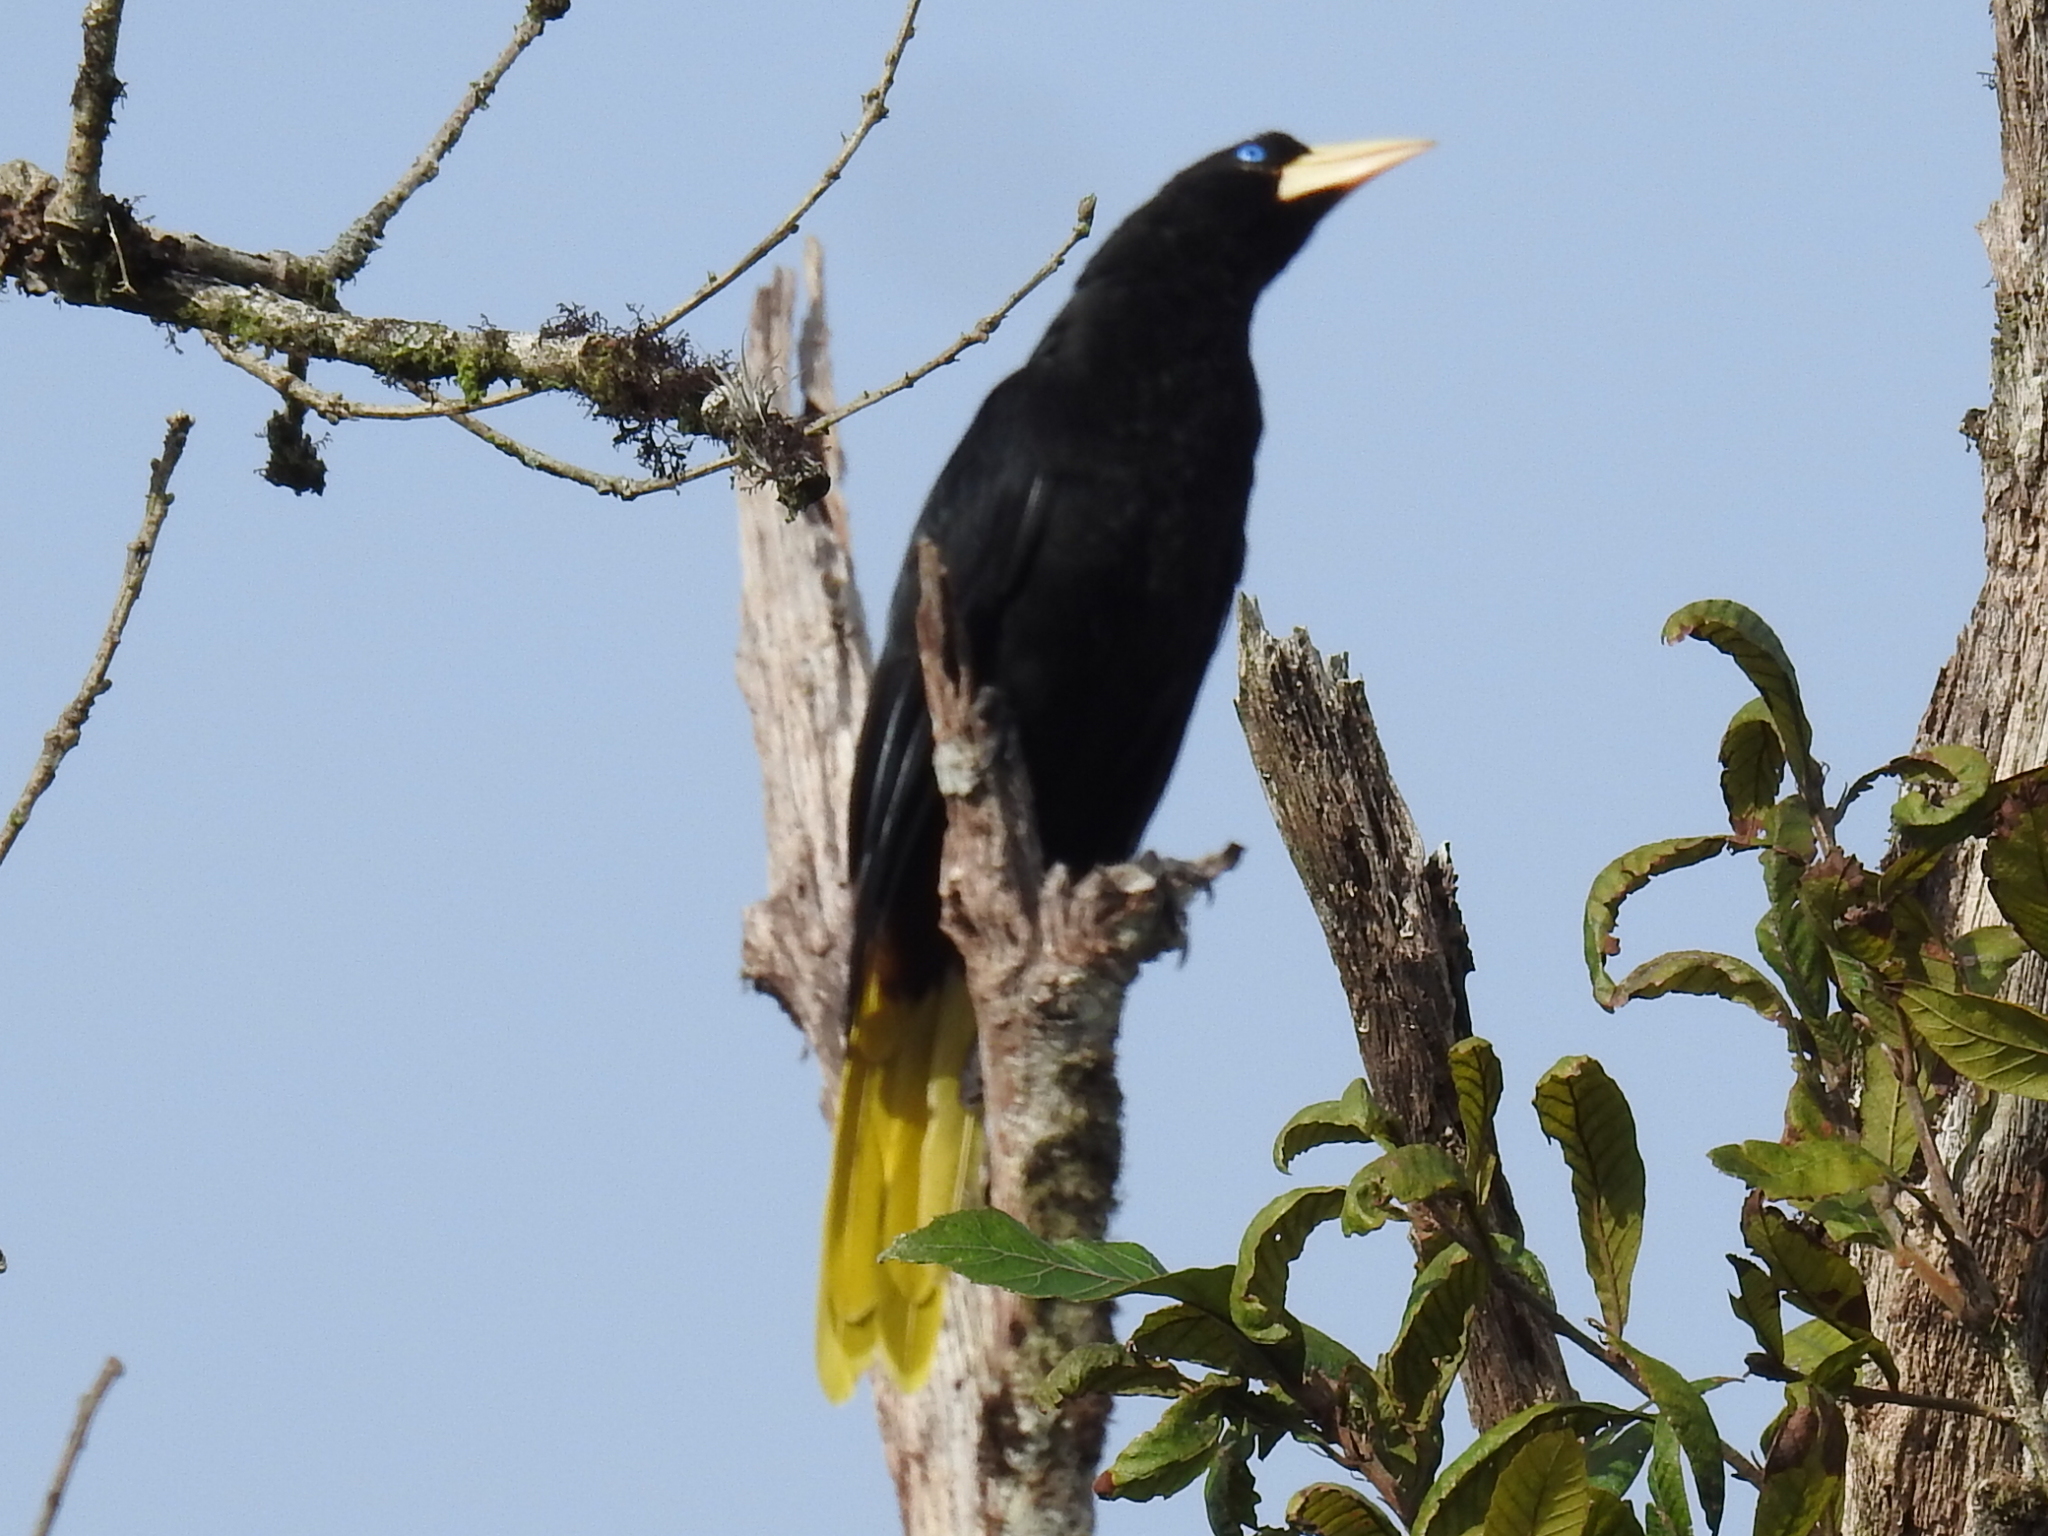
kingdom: Animalia
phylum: Chordata
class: Aves
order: Passeriformes
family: Icteridae
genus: Psarocolius
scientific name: Psarocolius decumanus
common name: Crested oropendola
